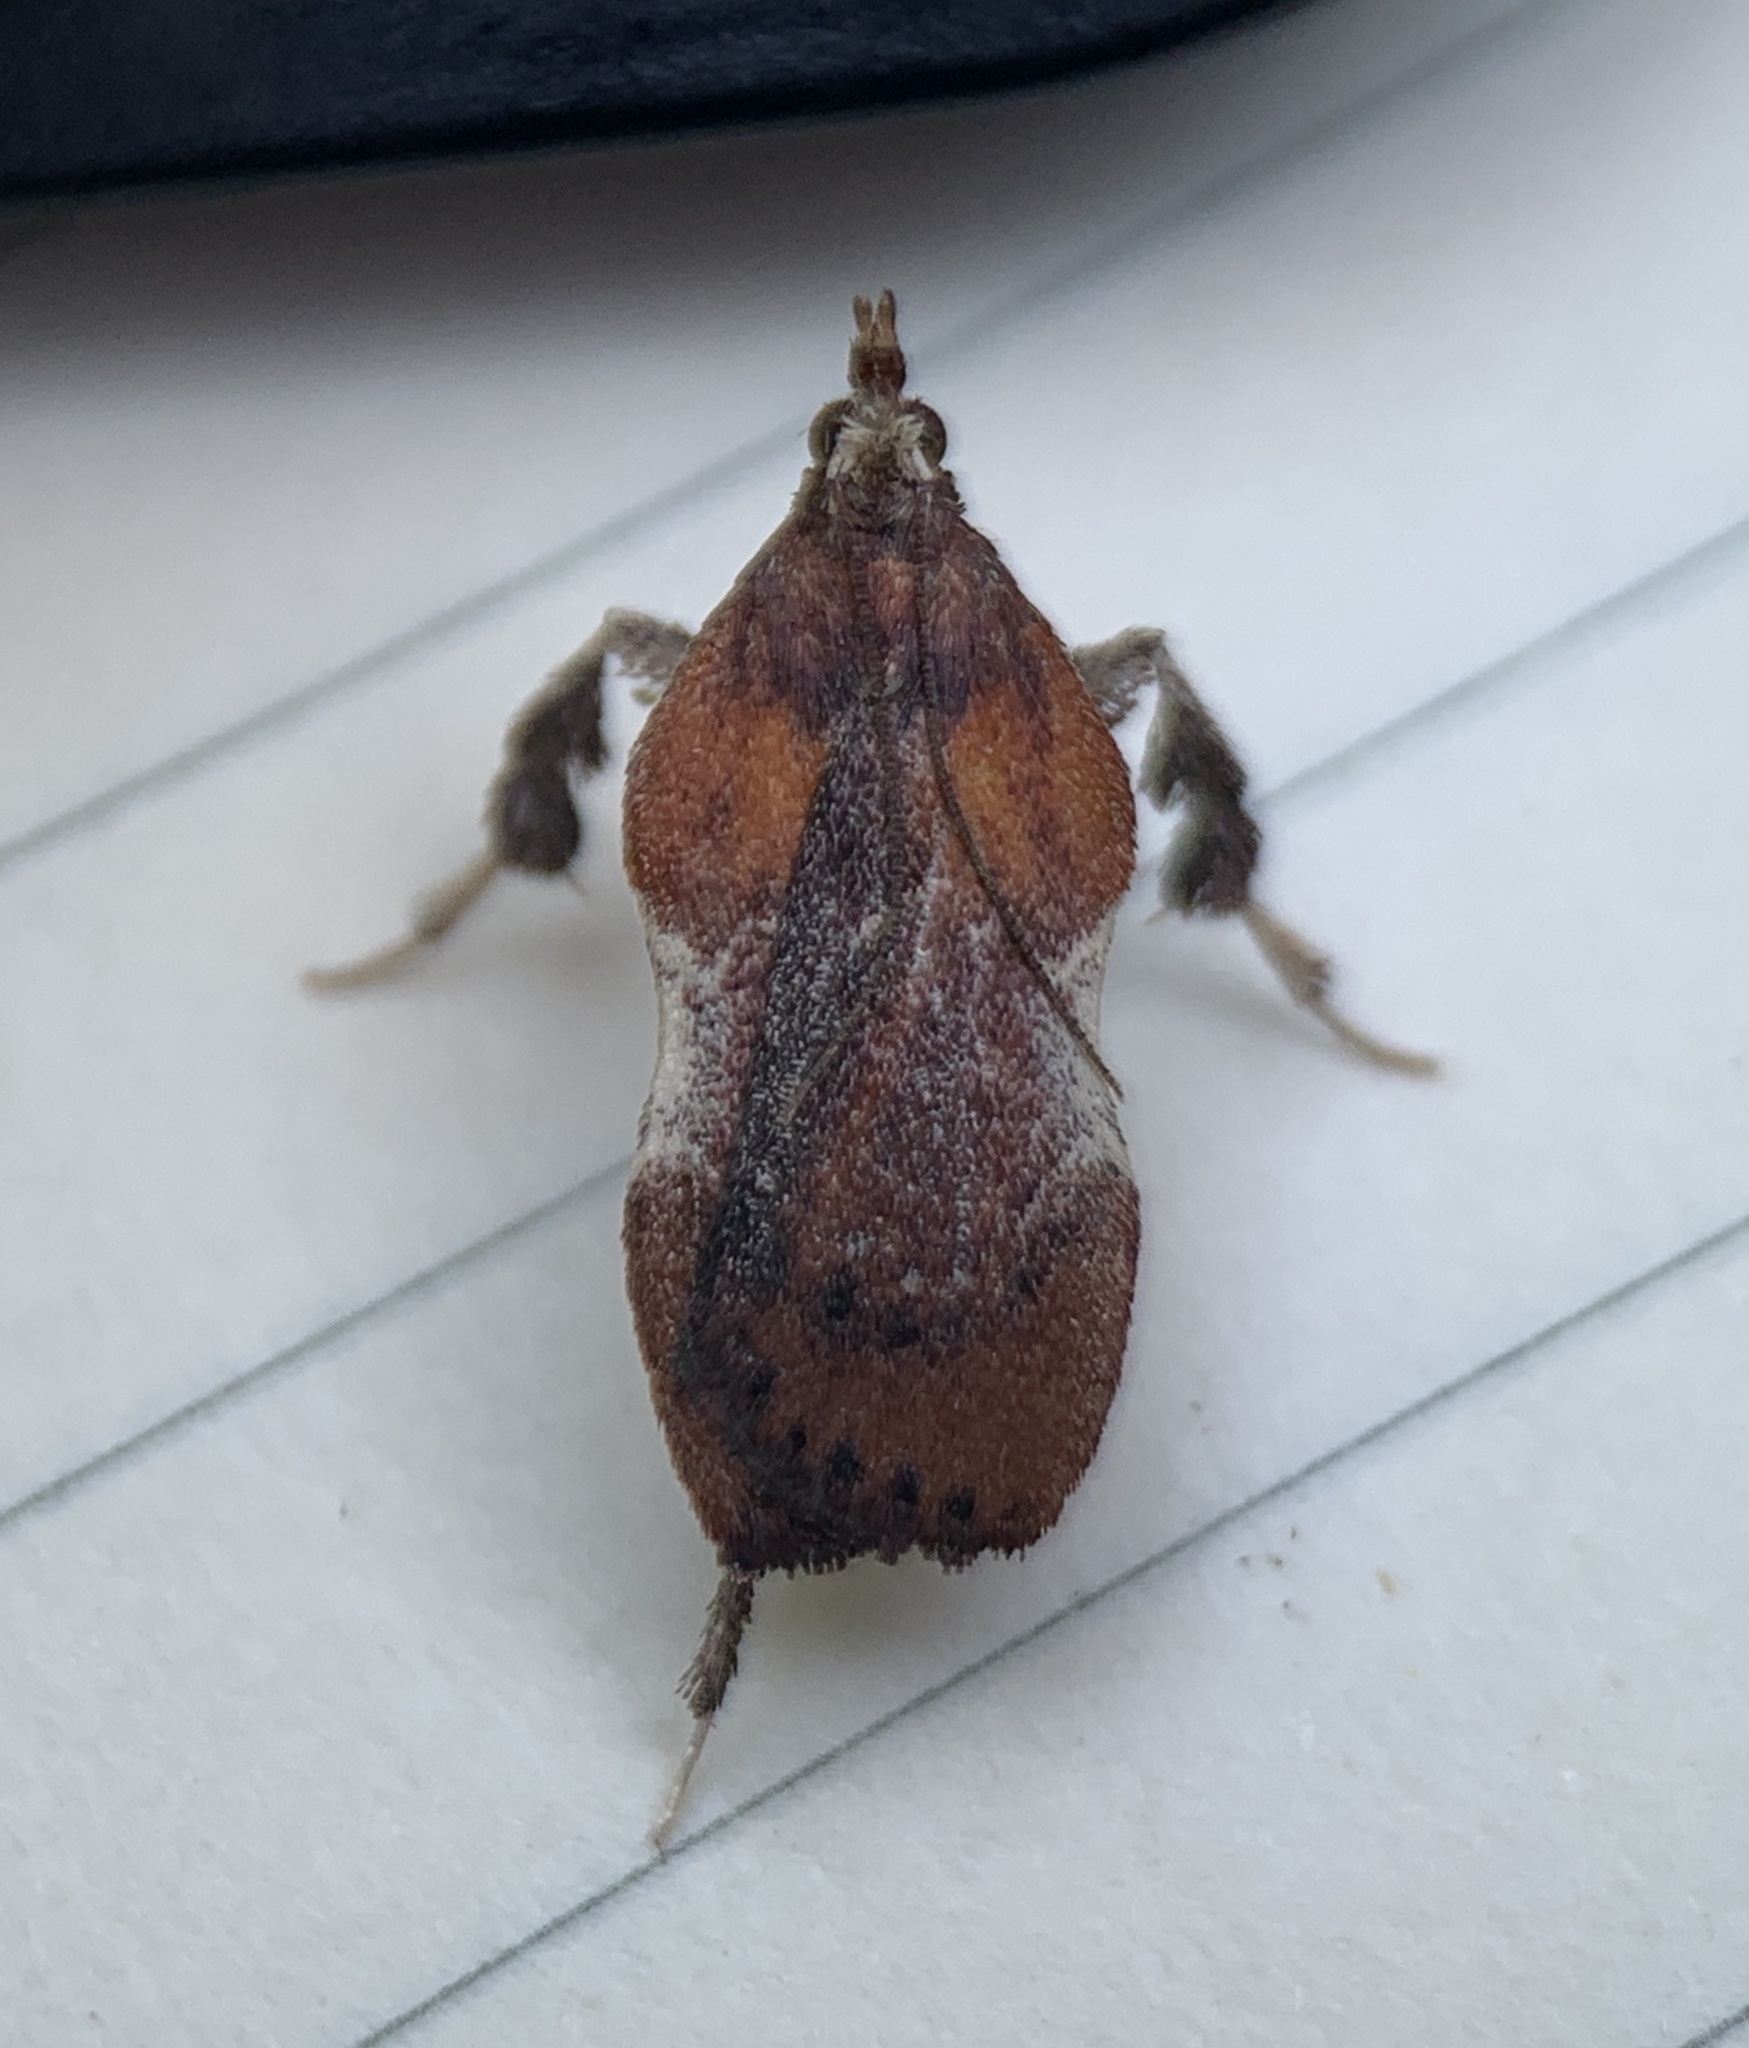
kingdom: Animalia
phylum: Arthropoda
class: Insecta
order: Lepidoptera
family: Pyralidae
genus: Galasa
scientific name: Galasa nigrinodis
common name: Boxwood leaftier moth
